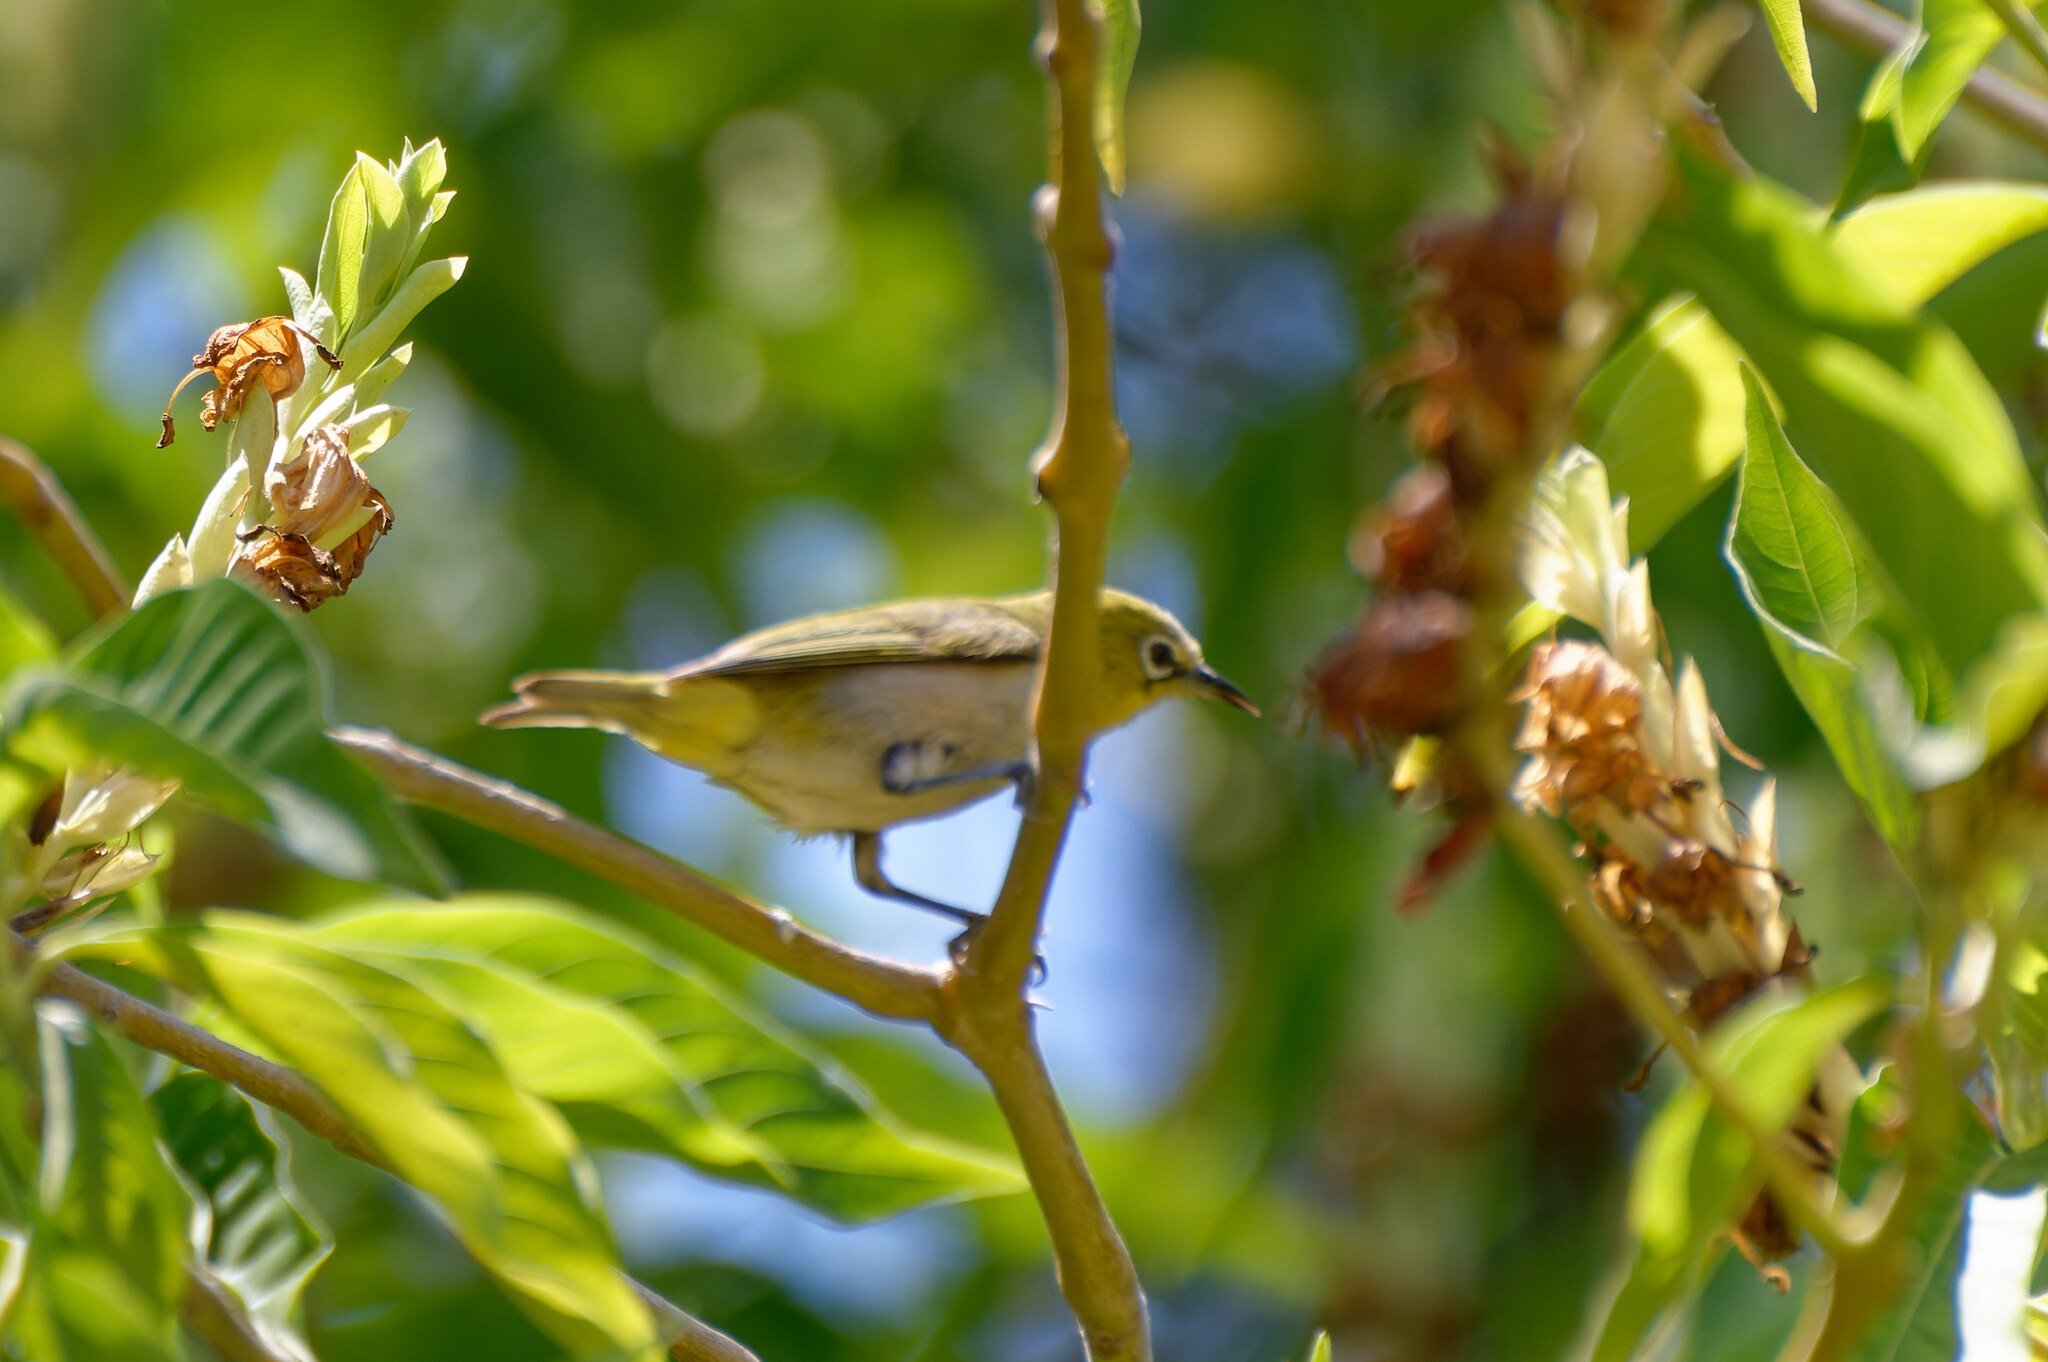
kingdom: Animalia
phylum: Chordata
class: Aves
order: Passeriformes
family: Zosteropidae
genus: Zosterops
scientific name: Zosterops simplex
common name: Swinhoe's white-eye
